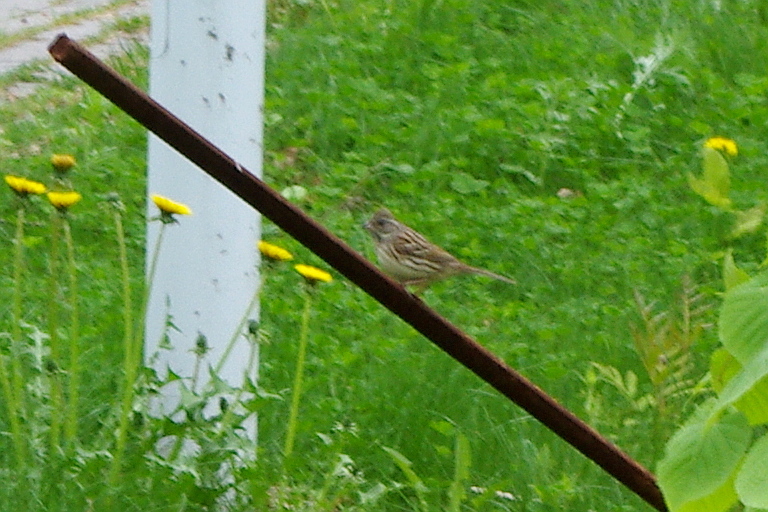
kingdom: Animalia
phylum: Chordata
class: Aves
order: Passeriformes
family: Emberizidae
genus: Emberiza
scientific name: Emberiza spodocephala
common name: Black-faced bunting
